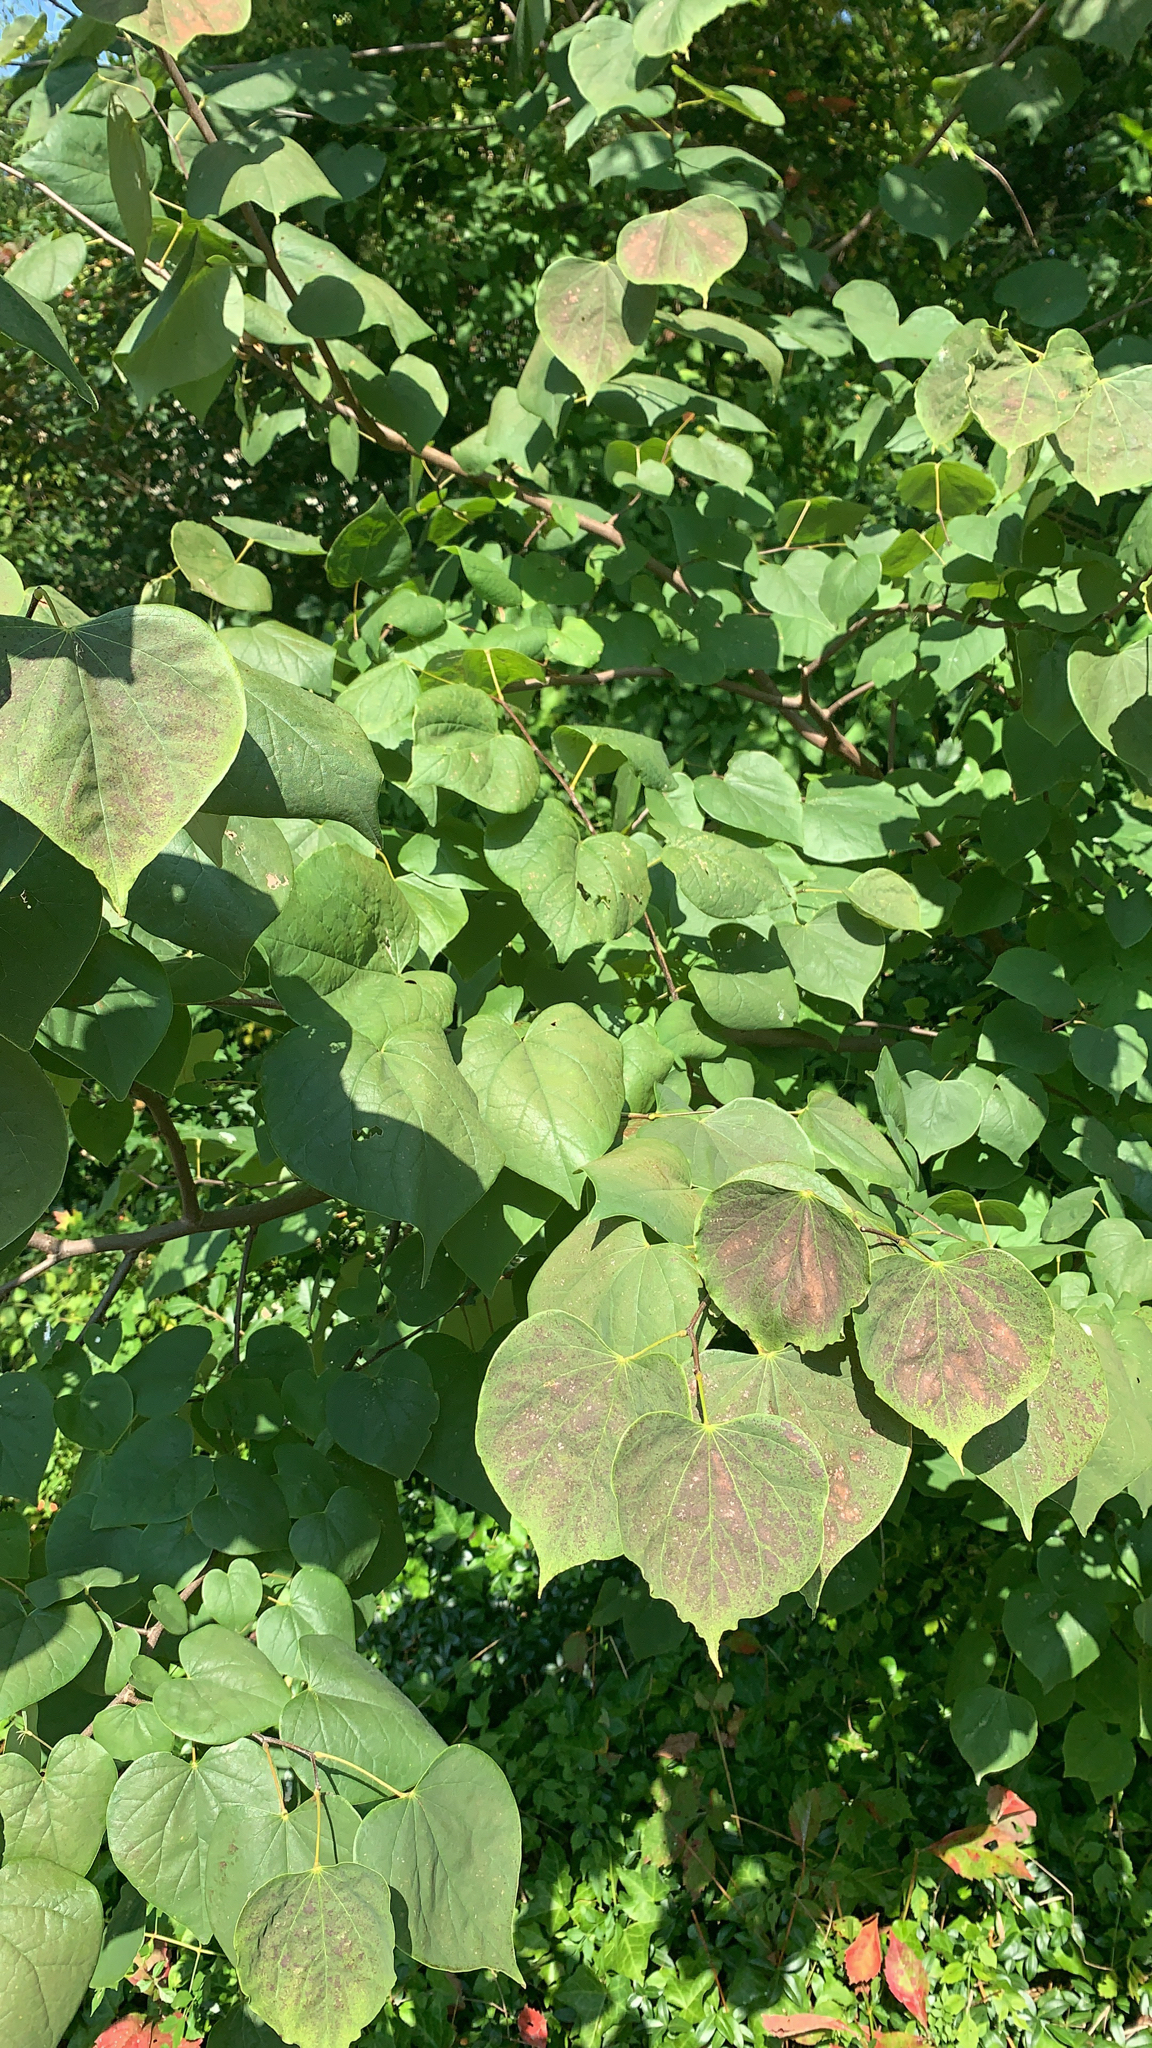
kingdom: Plantae
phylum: Tracheophyta
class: Magnoliopsida
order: Fabales
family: Fabaceae
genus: Cercis
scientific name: Cercis canadensis
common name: Eastern redbud
